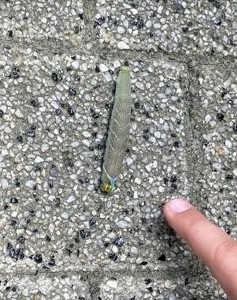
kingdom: Animalia
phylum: Arthropoda
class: Insecta
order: Lepidoptera
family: Sphingidae
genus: Mimas
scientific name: Mimas tiliae
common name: Lime hawk-moth
